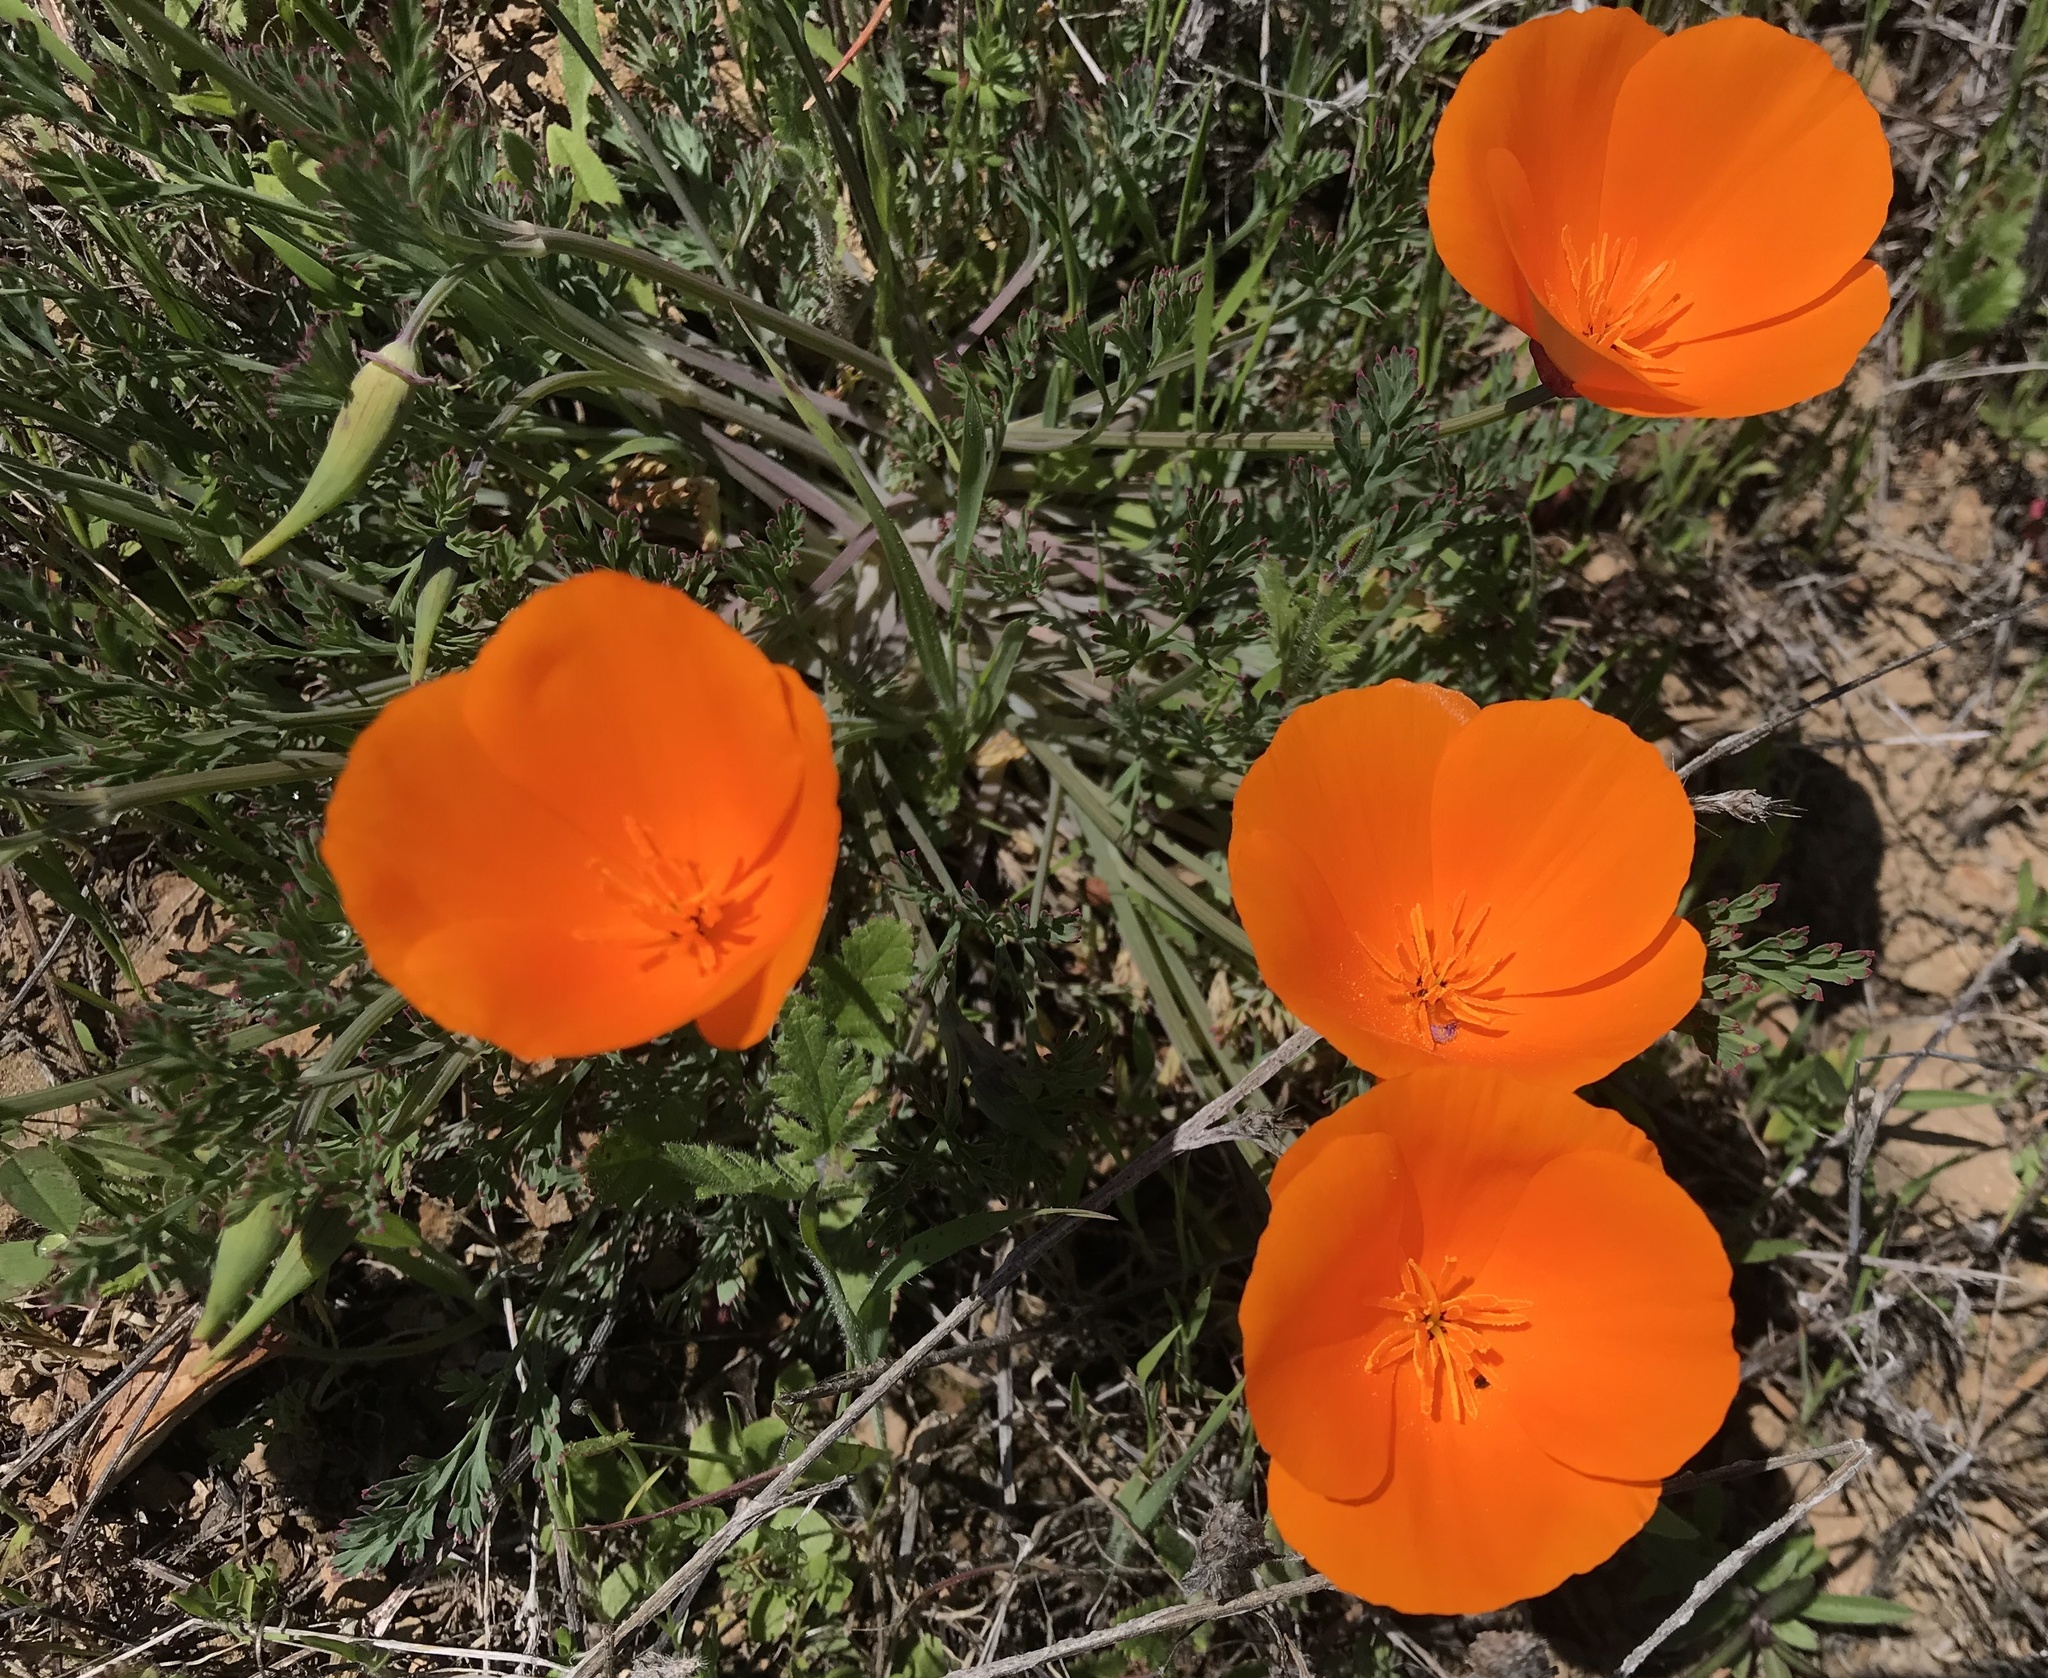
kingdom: Plantae
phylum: Tracheophyta
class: Magnoliopsida
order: Ranunculales
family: Papaveraceae
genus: Eschscholzia
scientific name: Eschscholzia californica
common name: California poppy
